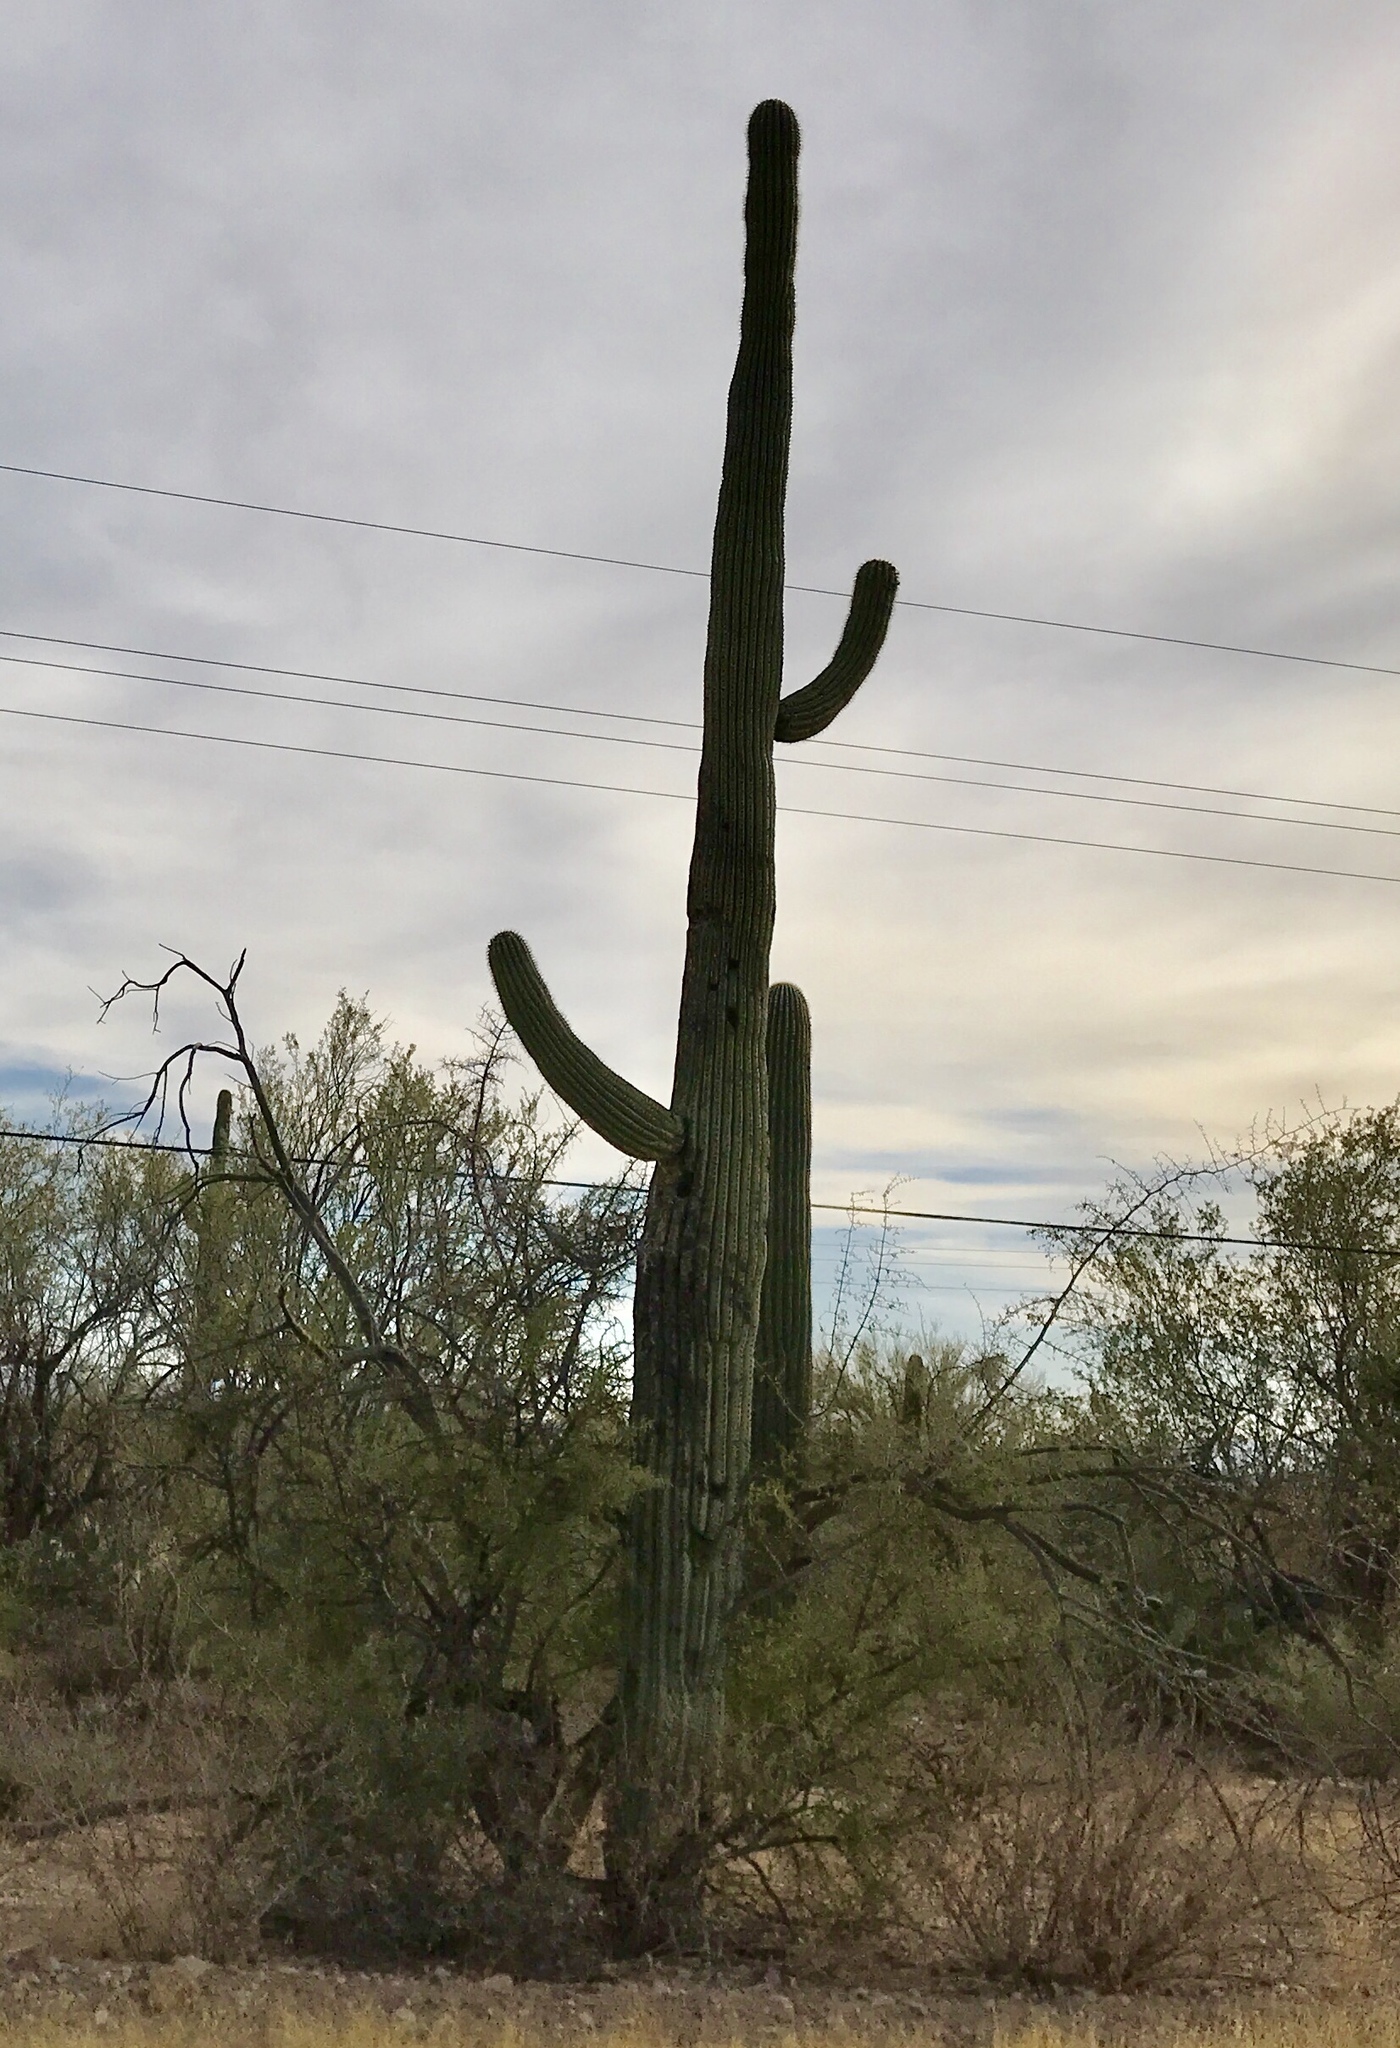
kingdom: Plantae
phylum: Tracheophyta
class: Magnoliopsida
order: Caryophyllales
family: Cactaceae
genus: Carnegiea
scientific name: Carnegiea gigantea
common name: Saguaro
